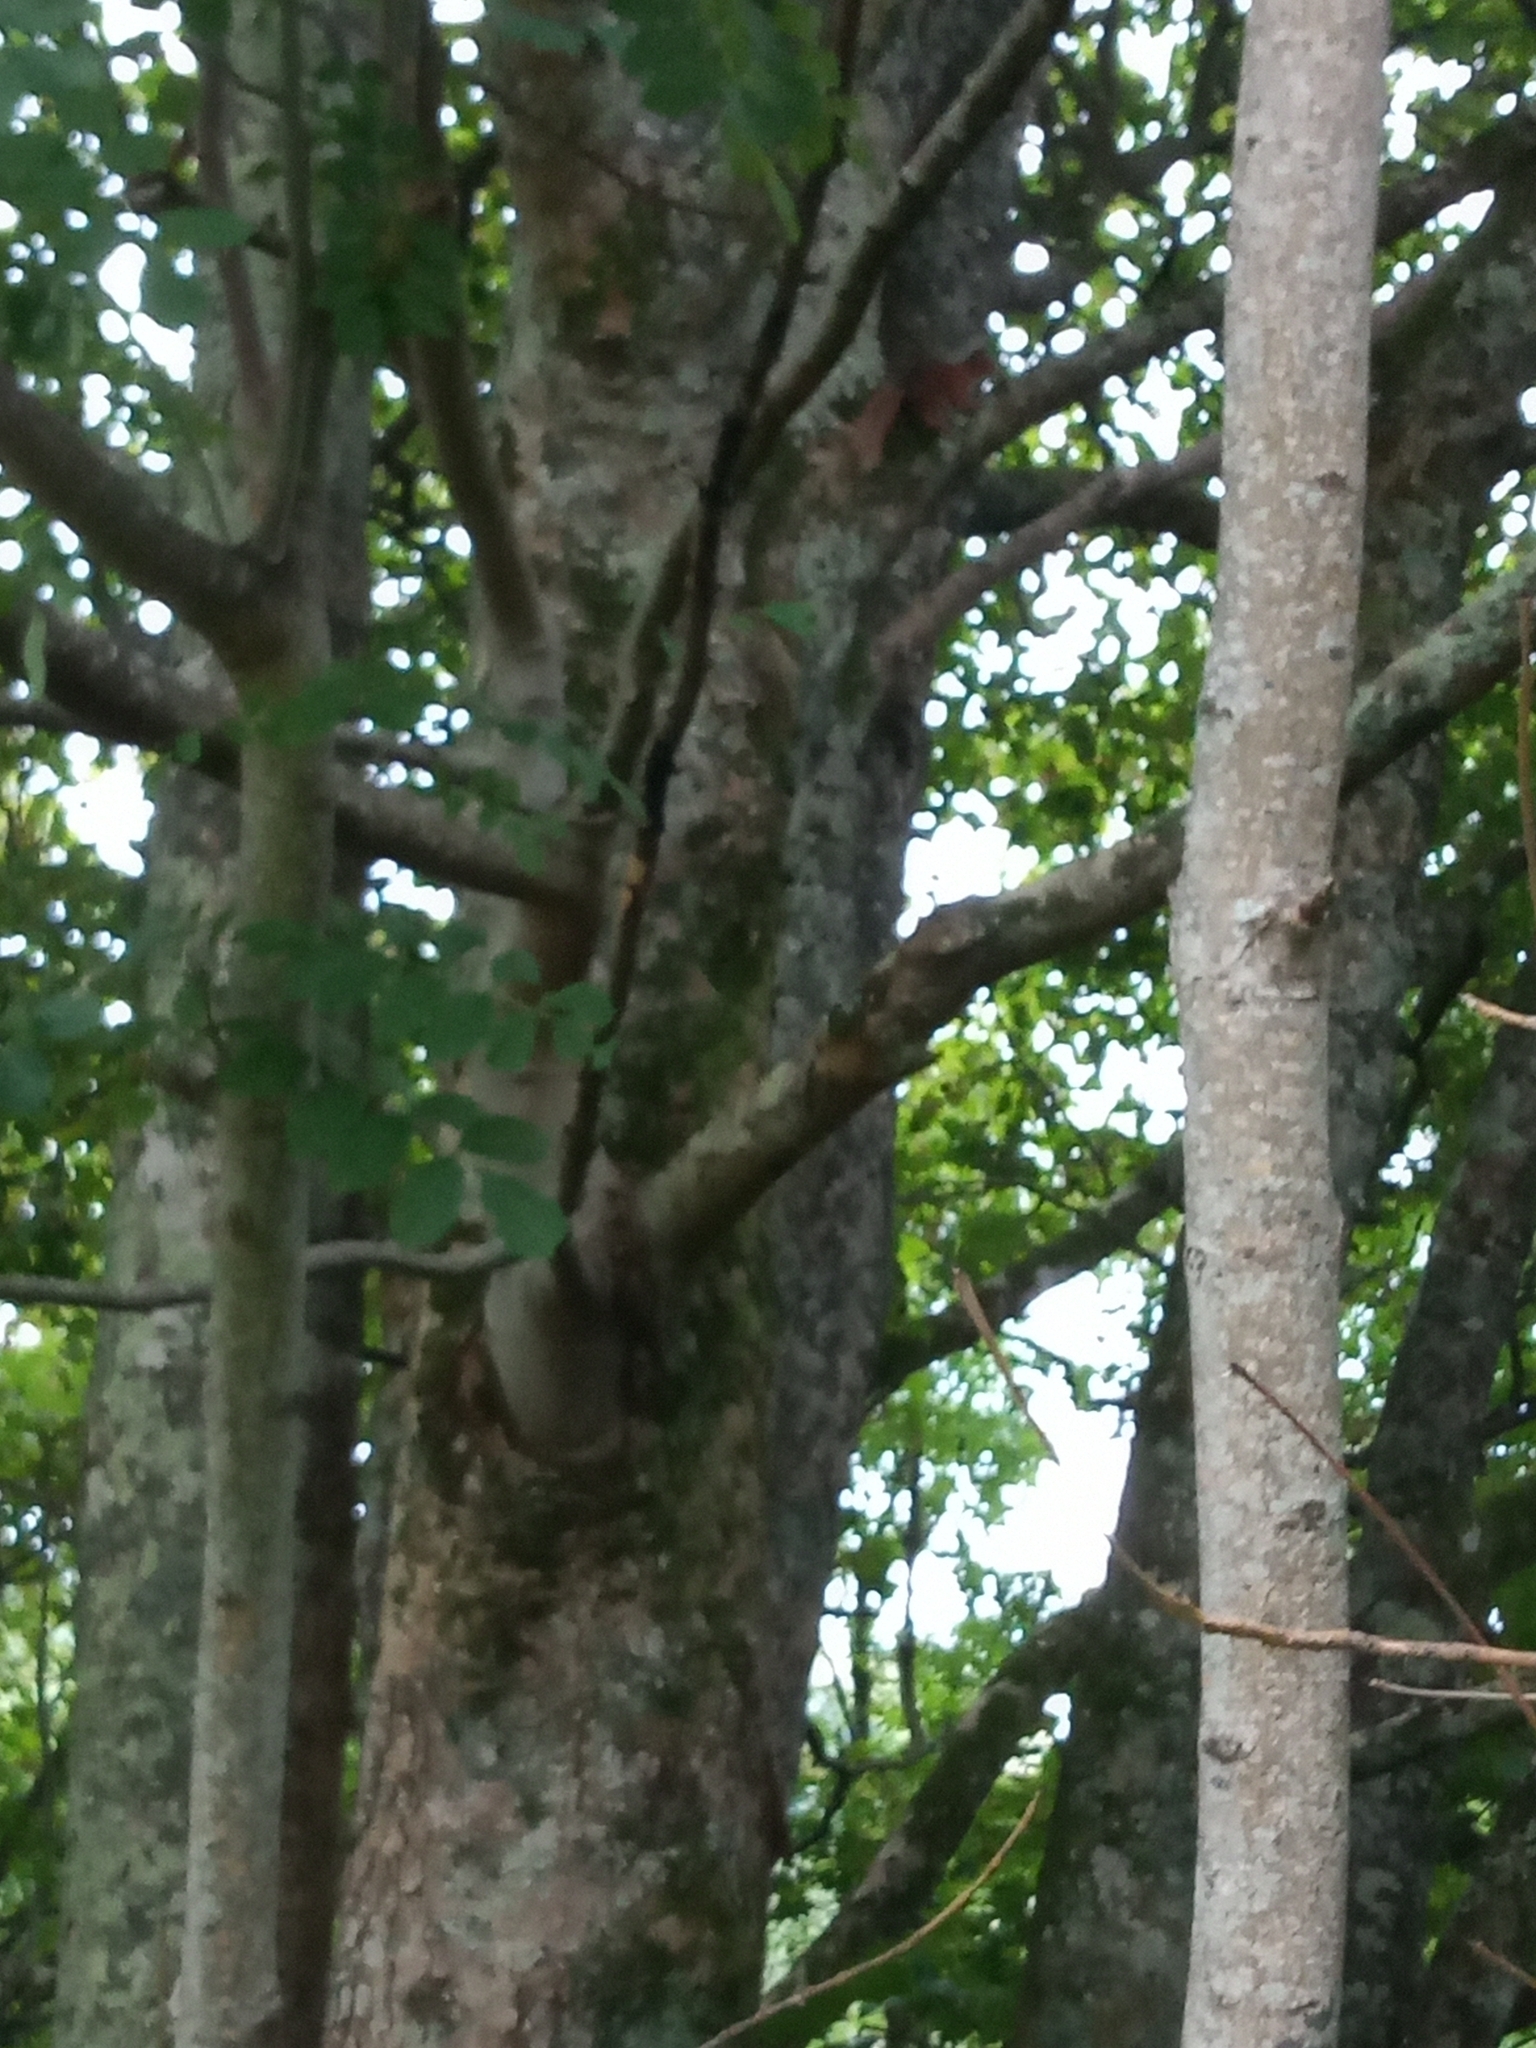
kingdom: Animalia
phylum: Chordata
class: Mammalia
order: Rodentia
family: Sciuridae
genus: Sciurus
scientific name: Sciurus vulgaris
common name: Eurasian red squirrel
